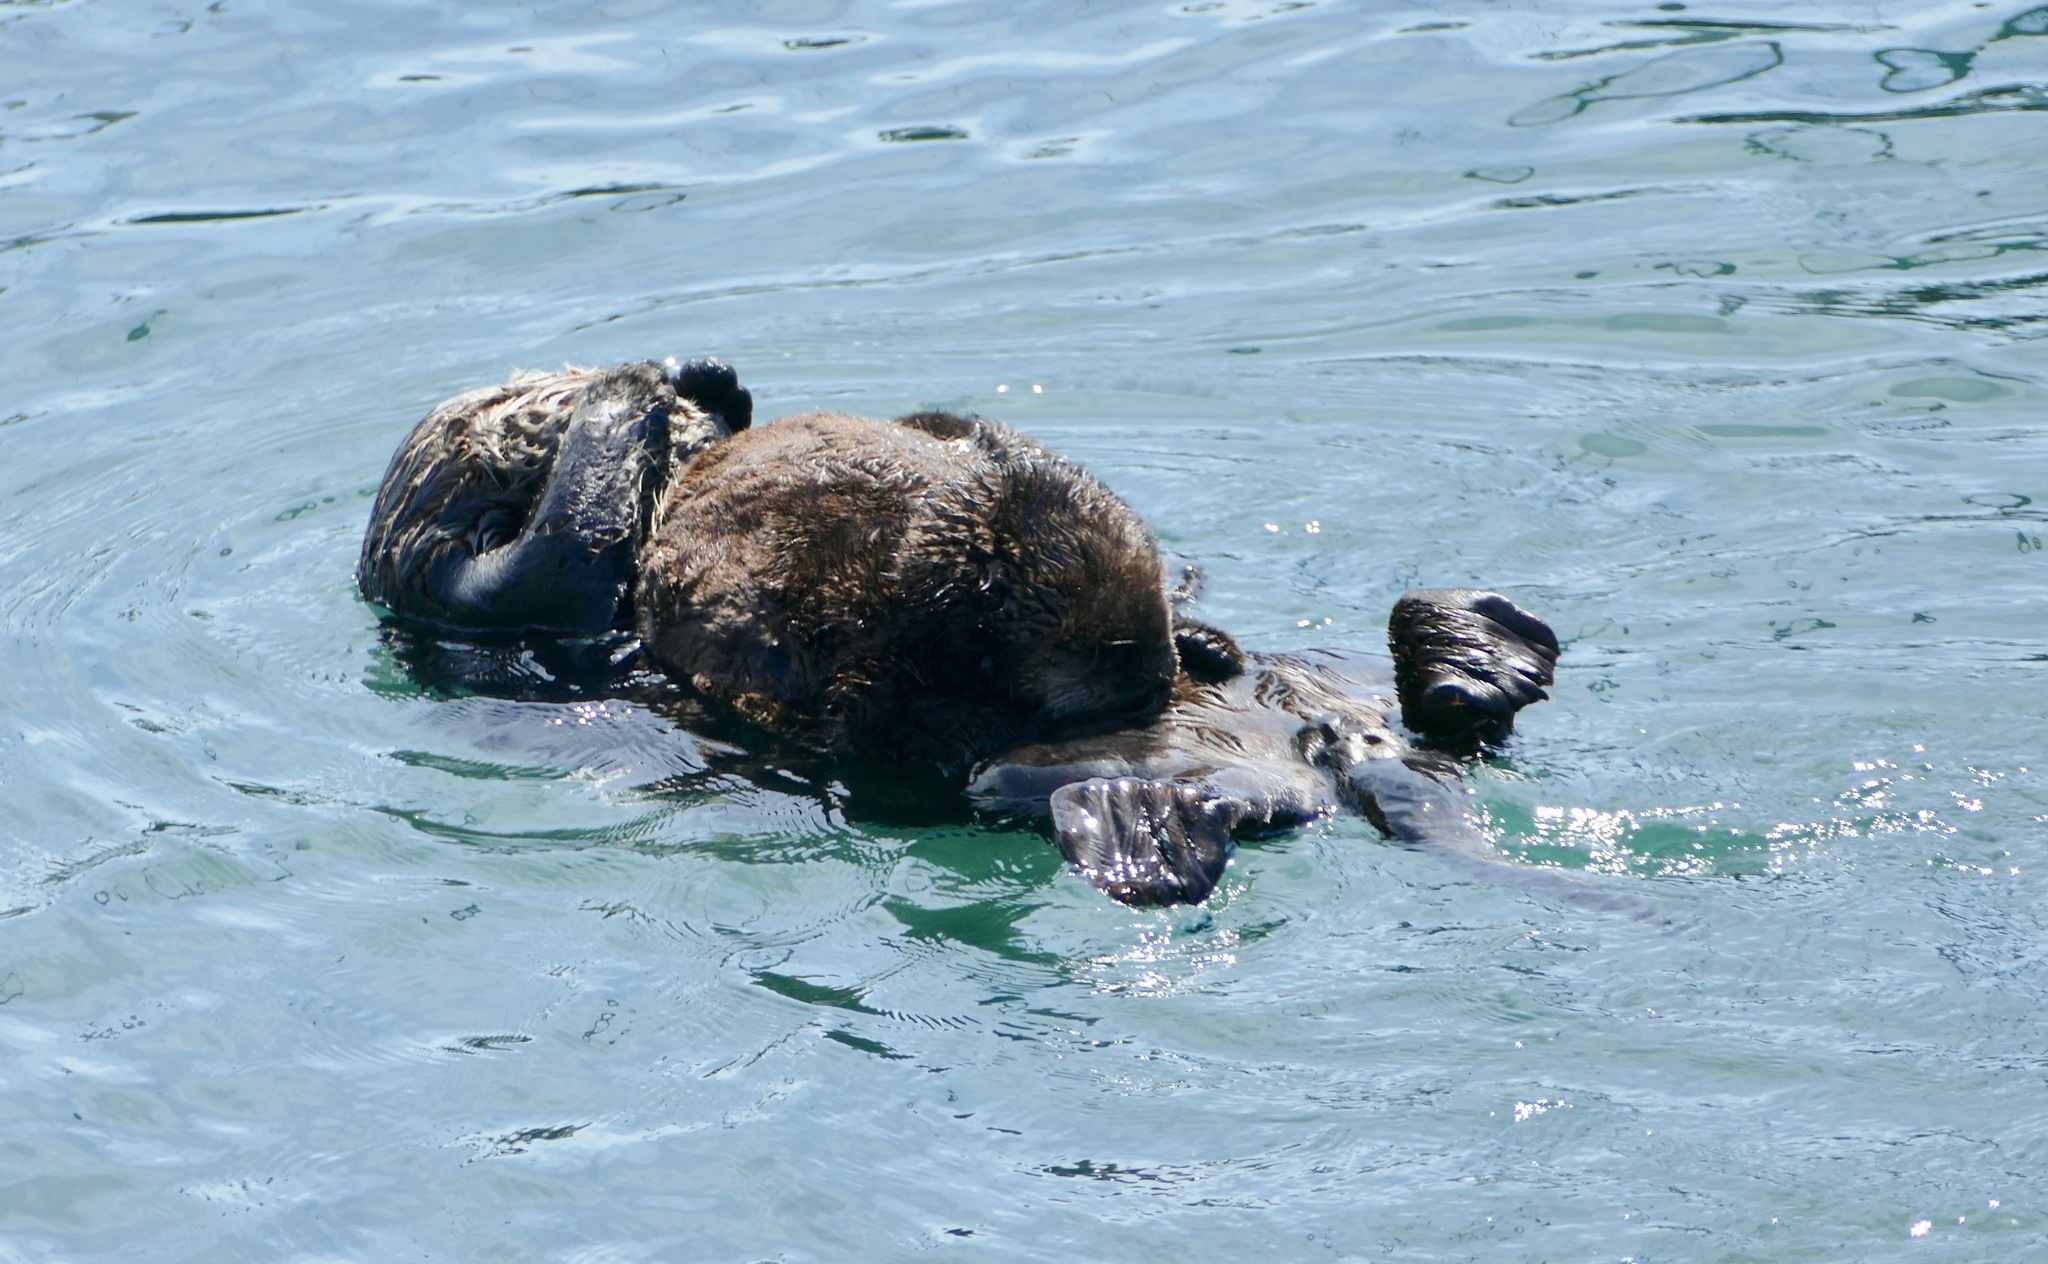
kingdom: Animalia
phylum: Chordata
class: Mammalia
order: Carnivora
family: Mustelidae
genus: Enhydra
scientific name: Enhydra lutris
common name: Sea otter
